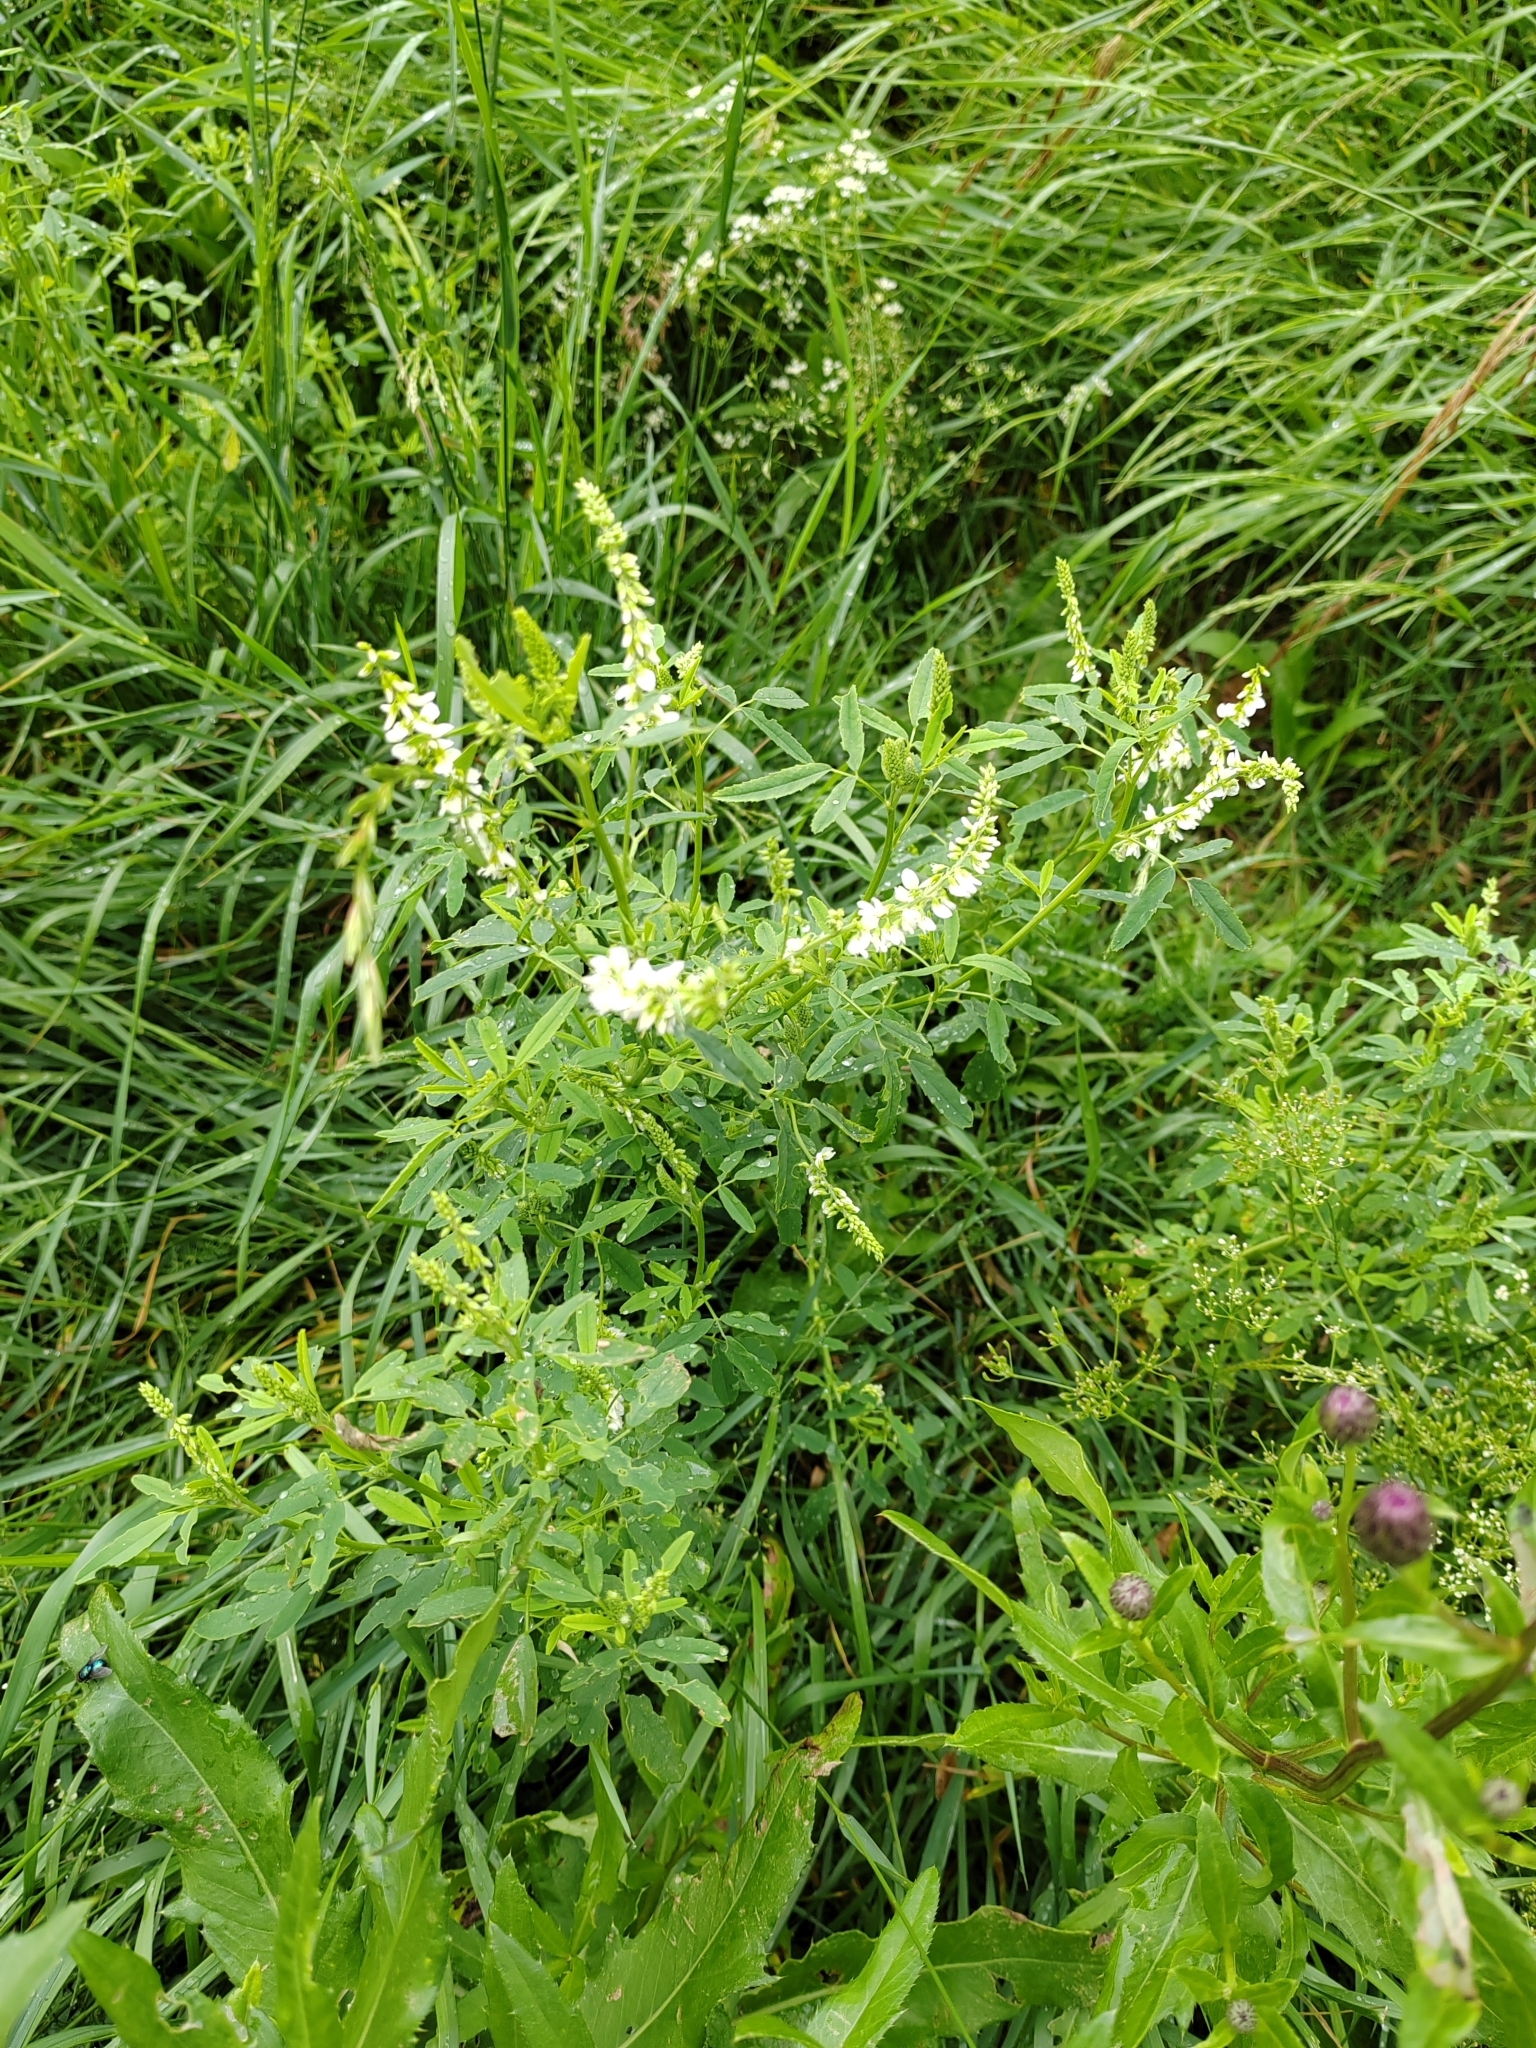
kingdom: Plantae
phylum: Tracheophyta
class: Magnoliopsida
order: Fabales
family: Fabaceae
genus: Melilotus
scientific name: Melilotus albus
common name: White melilot
